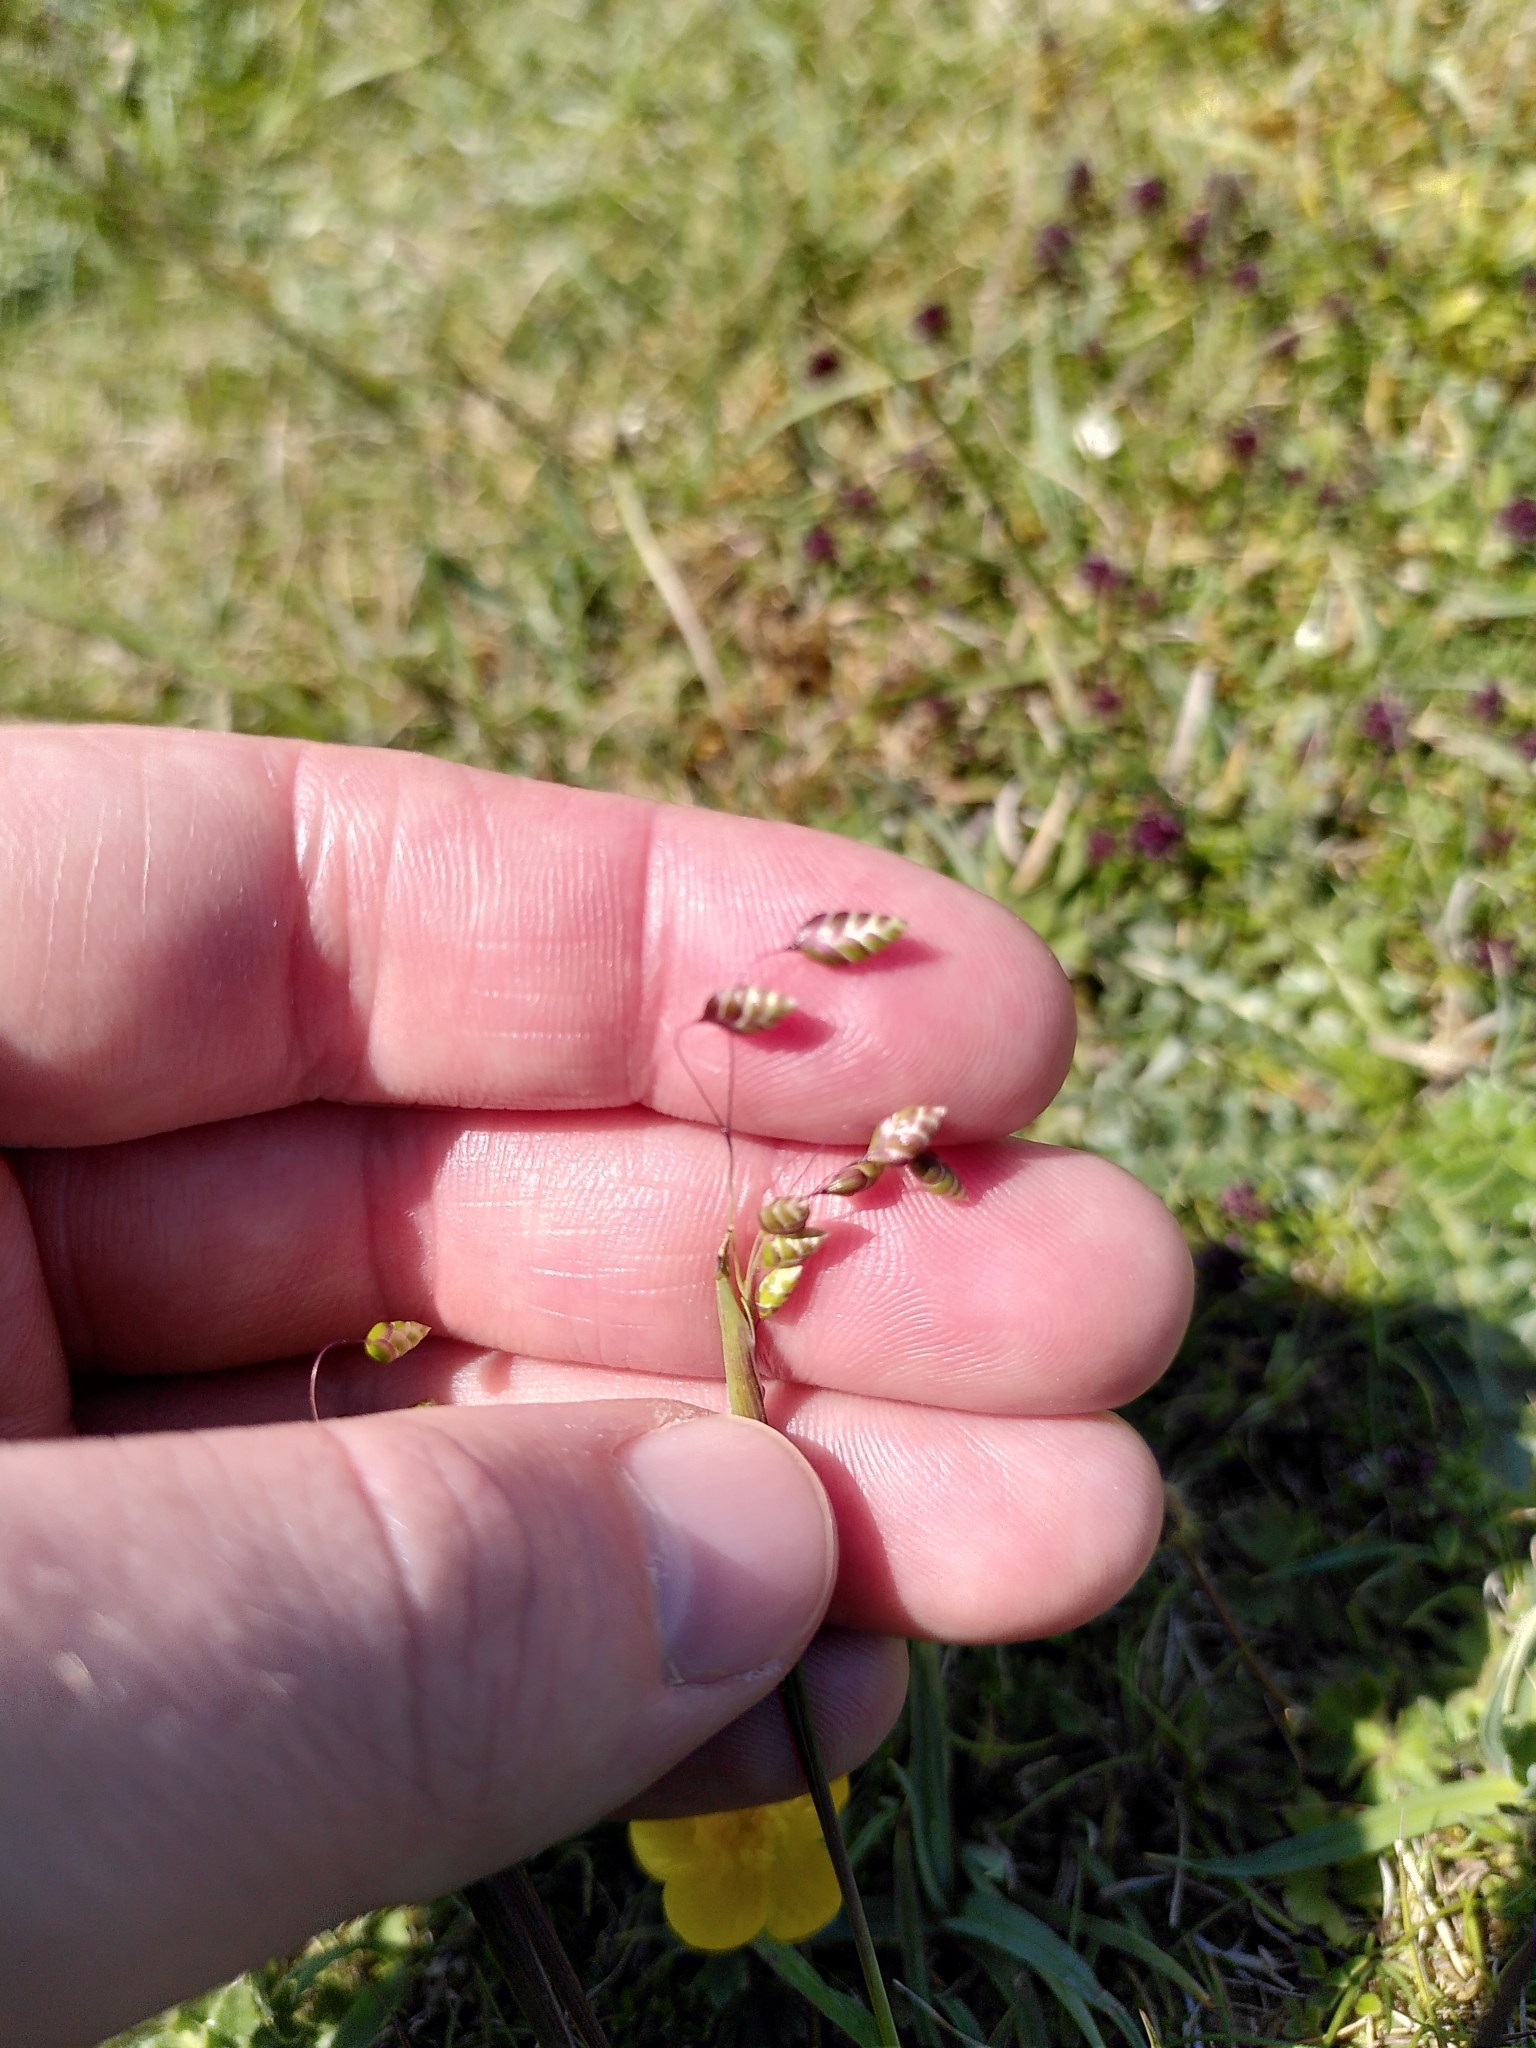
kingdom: Plantae
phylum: Tracheophyta
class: Liliopsida
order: Poales
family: Poaceae
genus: Briza
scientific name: Briza media
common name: Quaking grass
